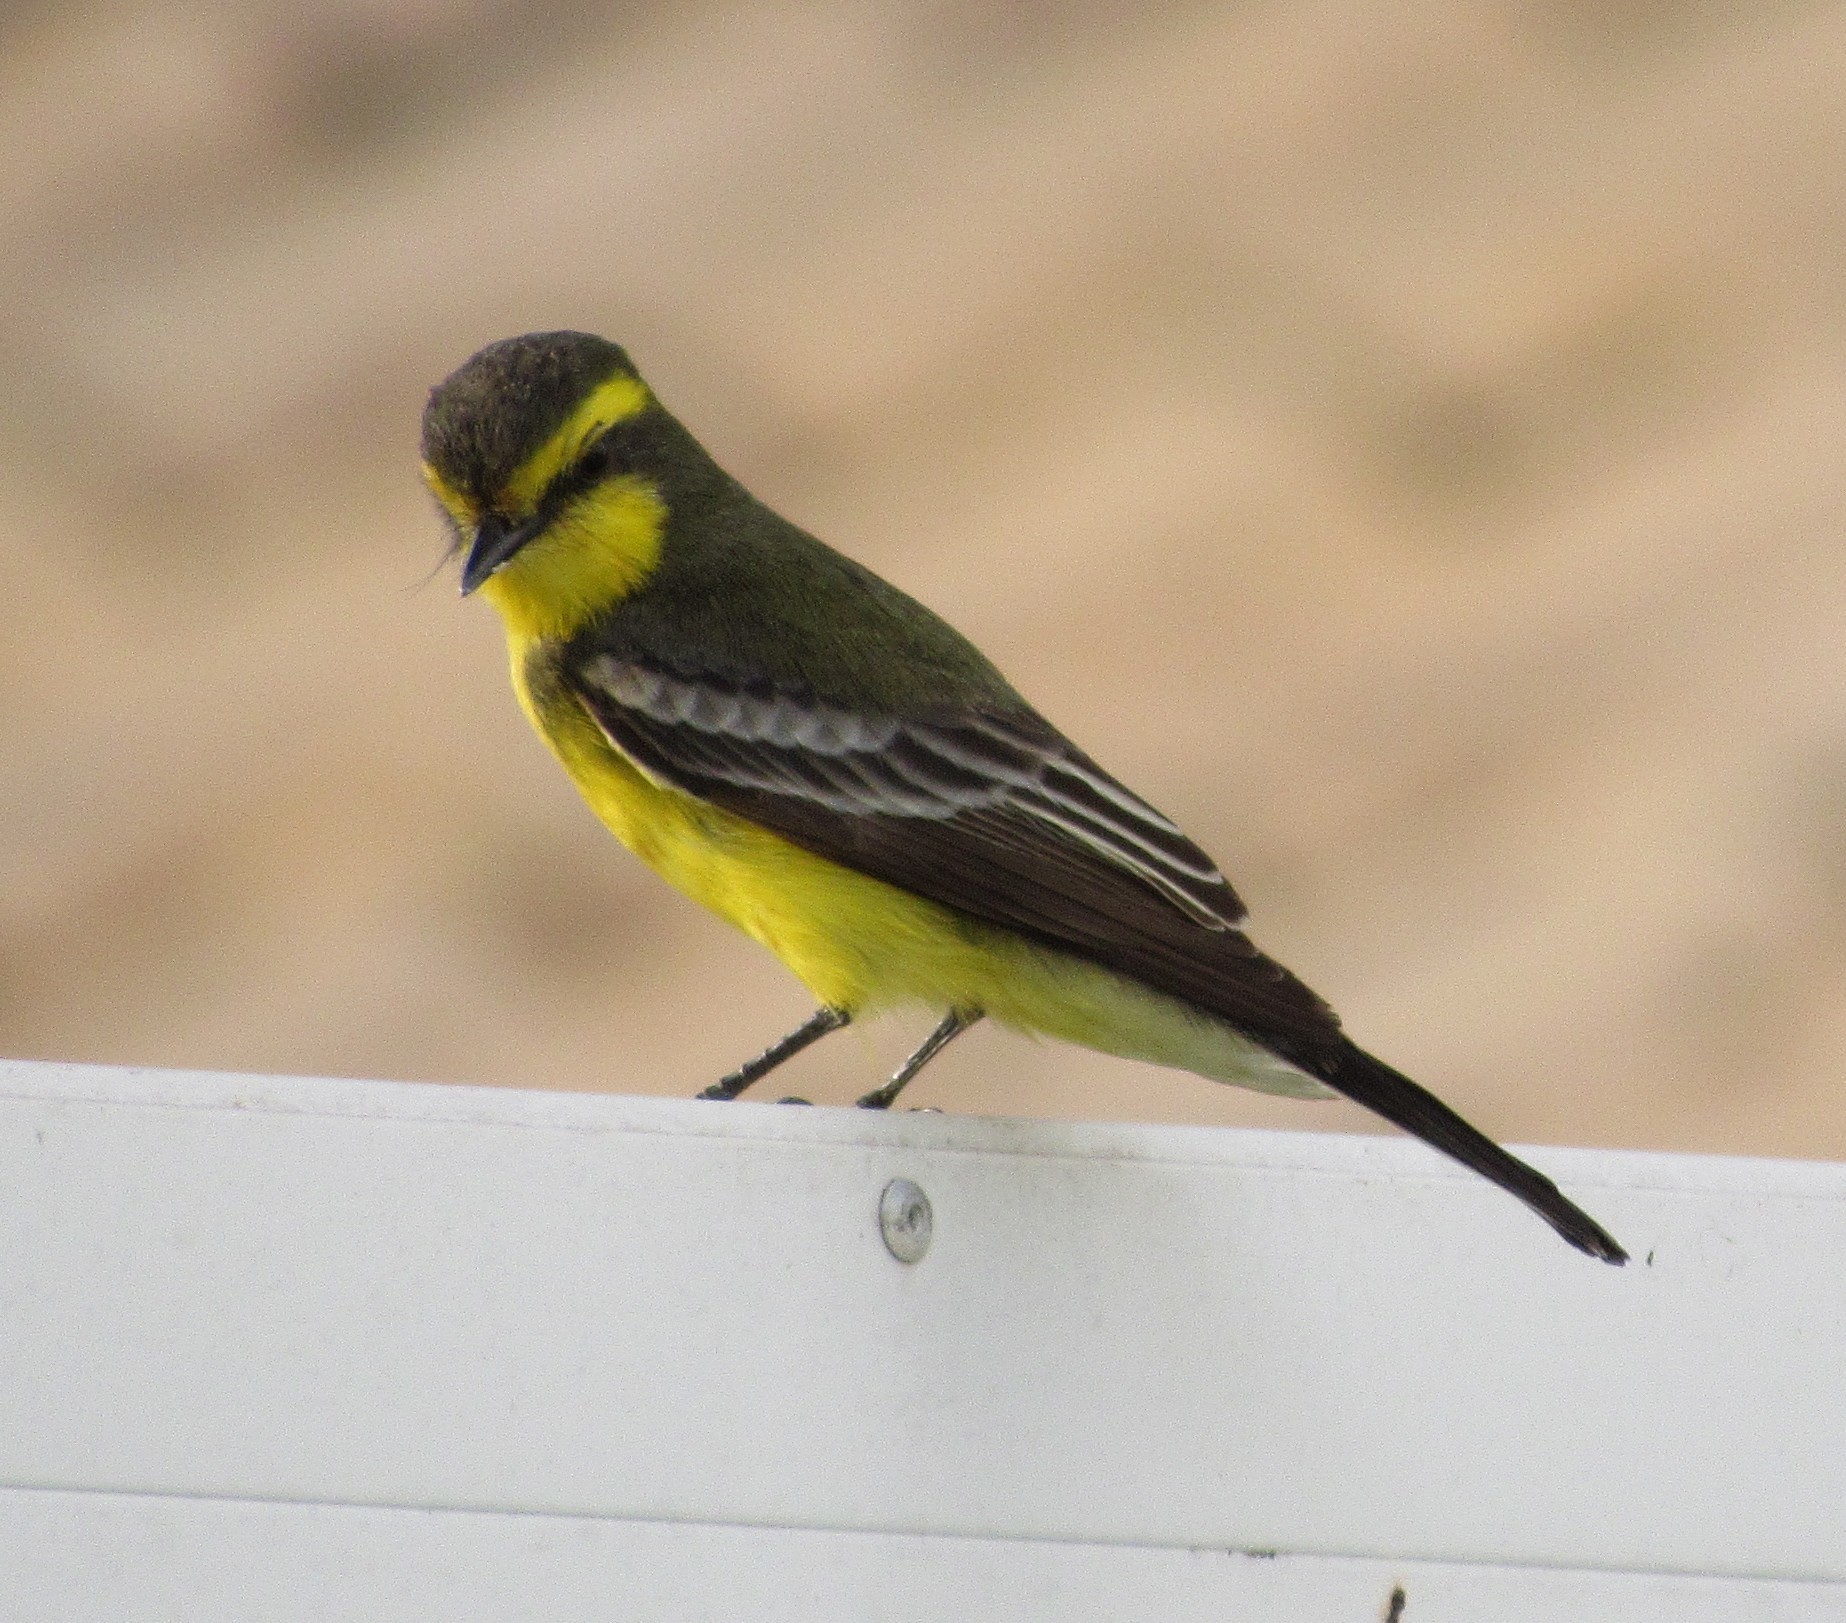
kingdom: Animalia
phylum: Chordata
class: Aves
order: Passeriformes
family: Tyrannidae
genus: Satrapa
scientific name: Satrapa icterophrys
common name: Yellow-browed tyrant
